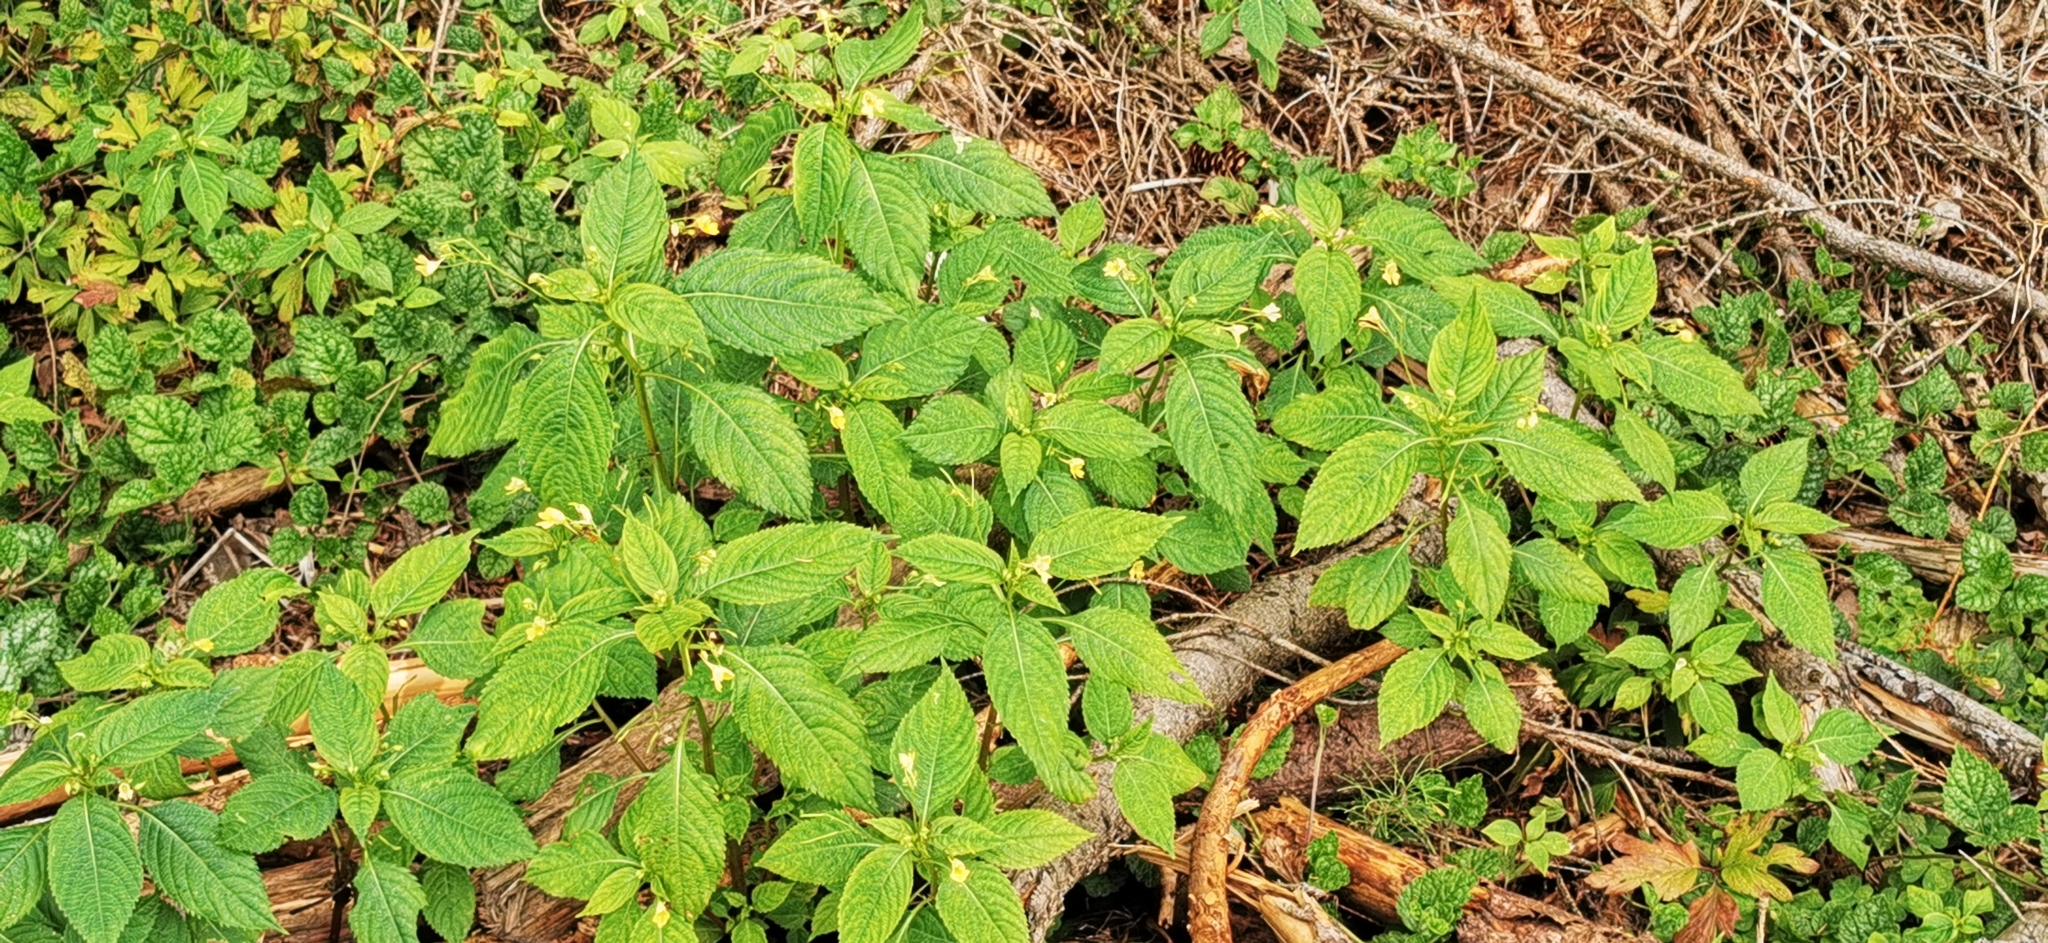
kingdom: Plantae
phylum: Tracheophyta
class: Magnoliopsida
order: Ericales
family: Balsaminaceae
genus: Impatiens
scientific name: Impatiens parviflora
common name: Small balsam
